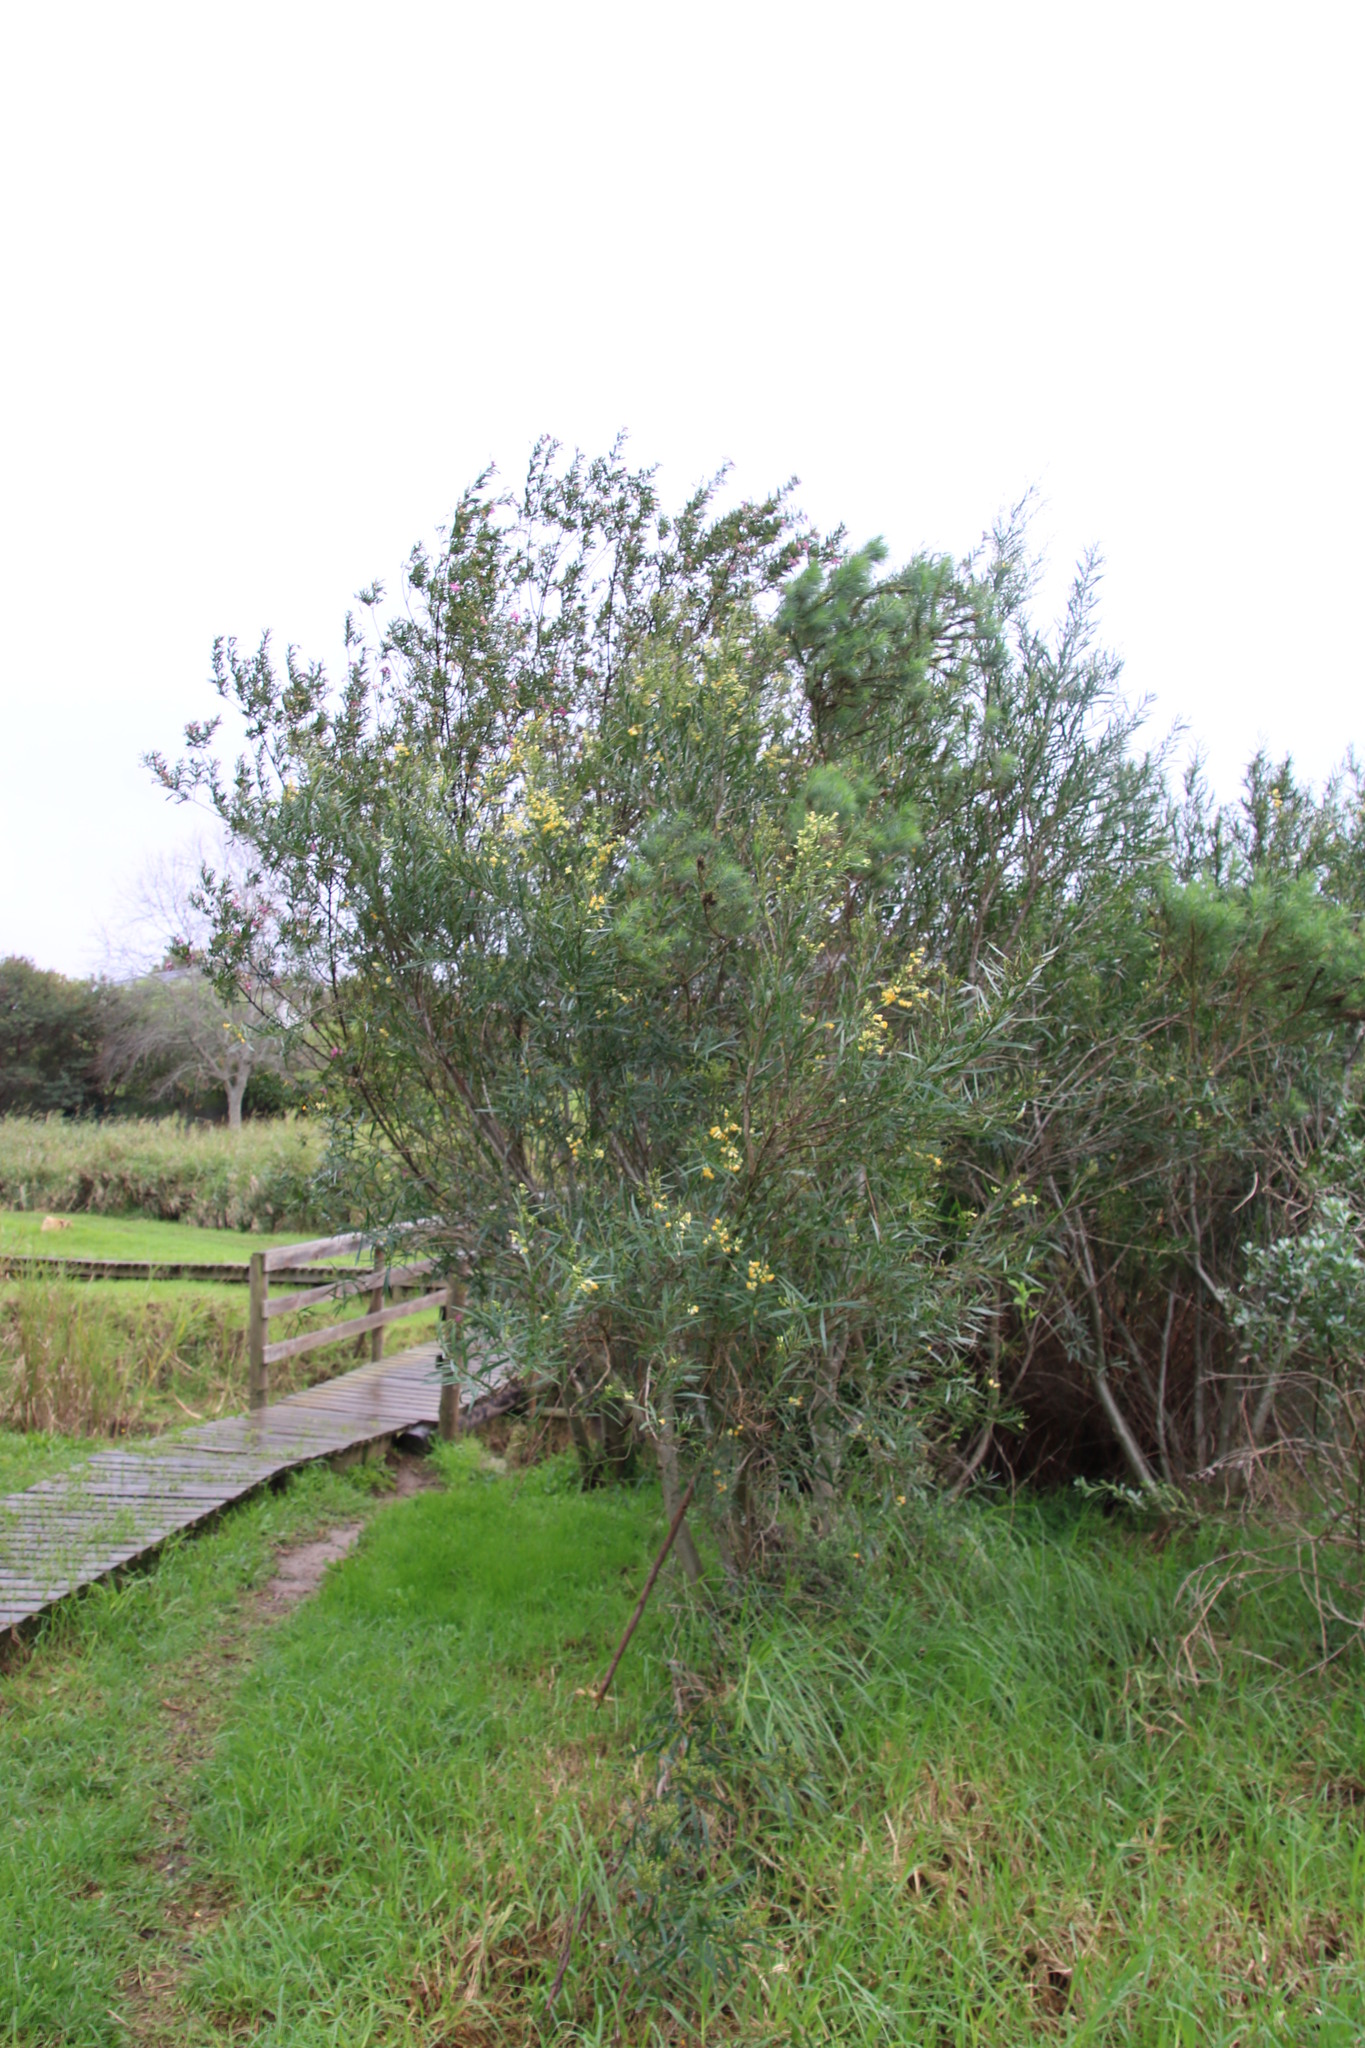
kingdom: Plantae
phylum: Tracheophyta
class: Magnoliopsida
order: Lamiales
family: Scrophulariaceae
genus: Freylinia
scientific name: Freylinia lanceolata
